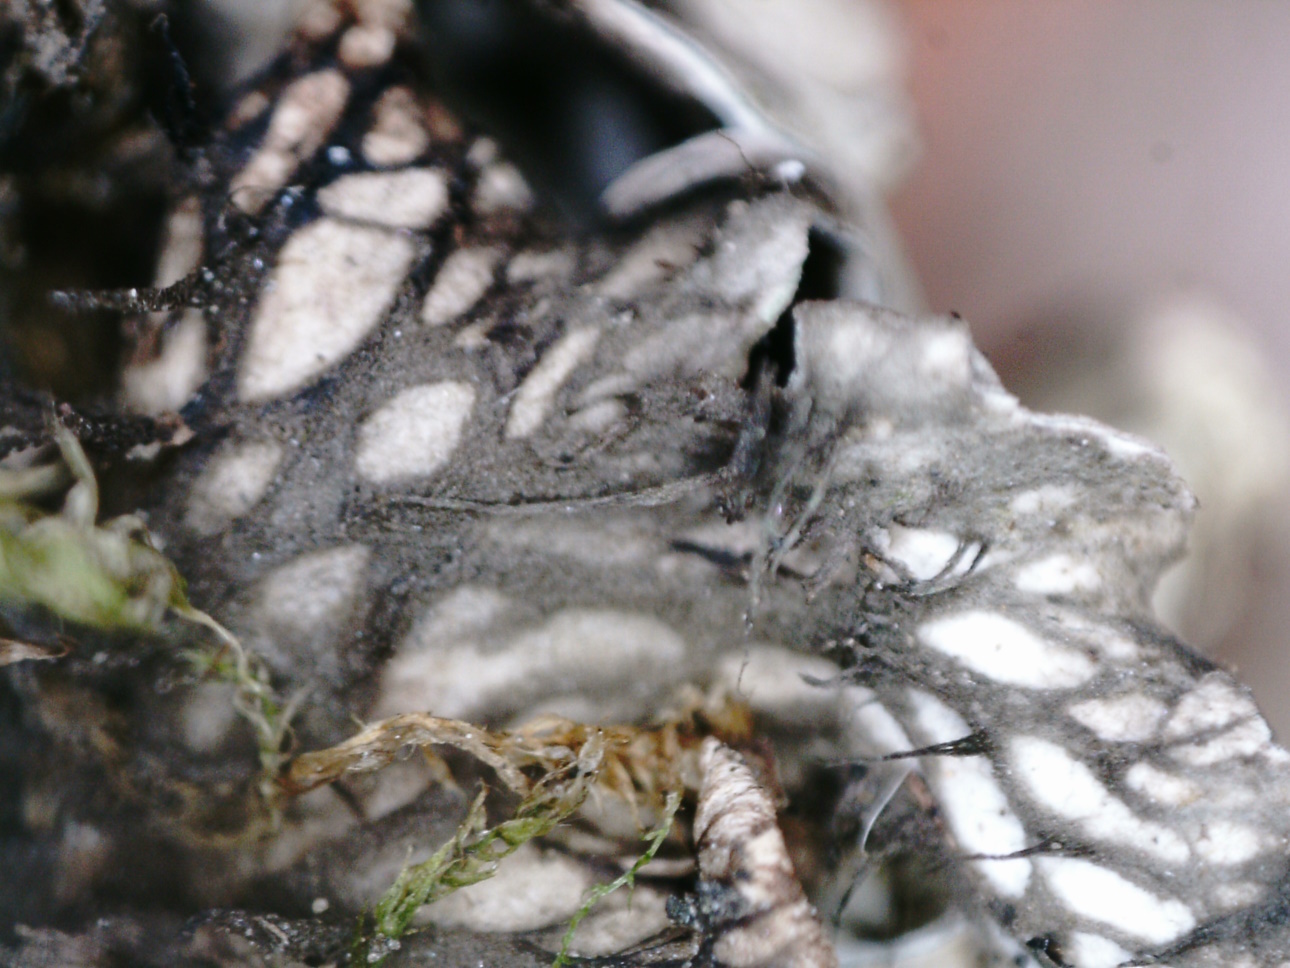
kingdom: Fungi
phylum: Ascomycota
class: Lecanoromycetes
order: Peltigerales
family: Peltigeraceae
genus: Peltigera
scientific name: Peltigera rufescens
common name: Field dog lichen
